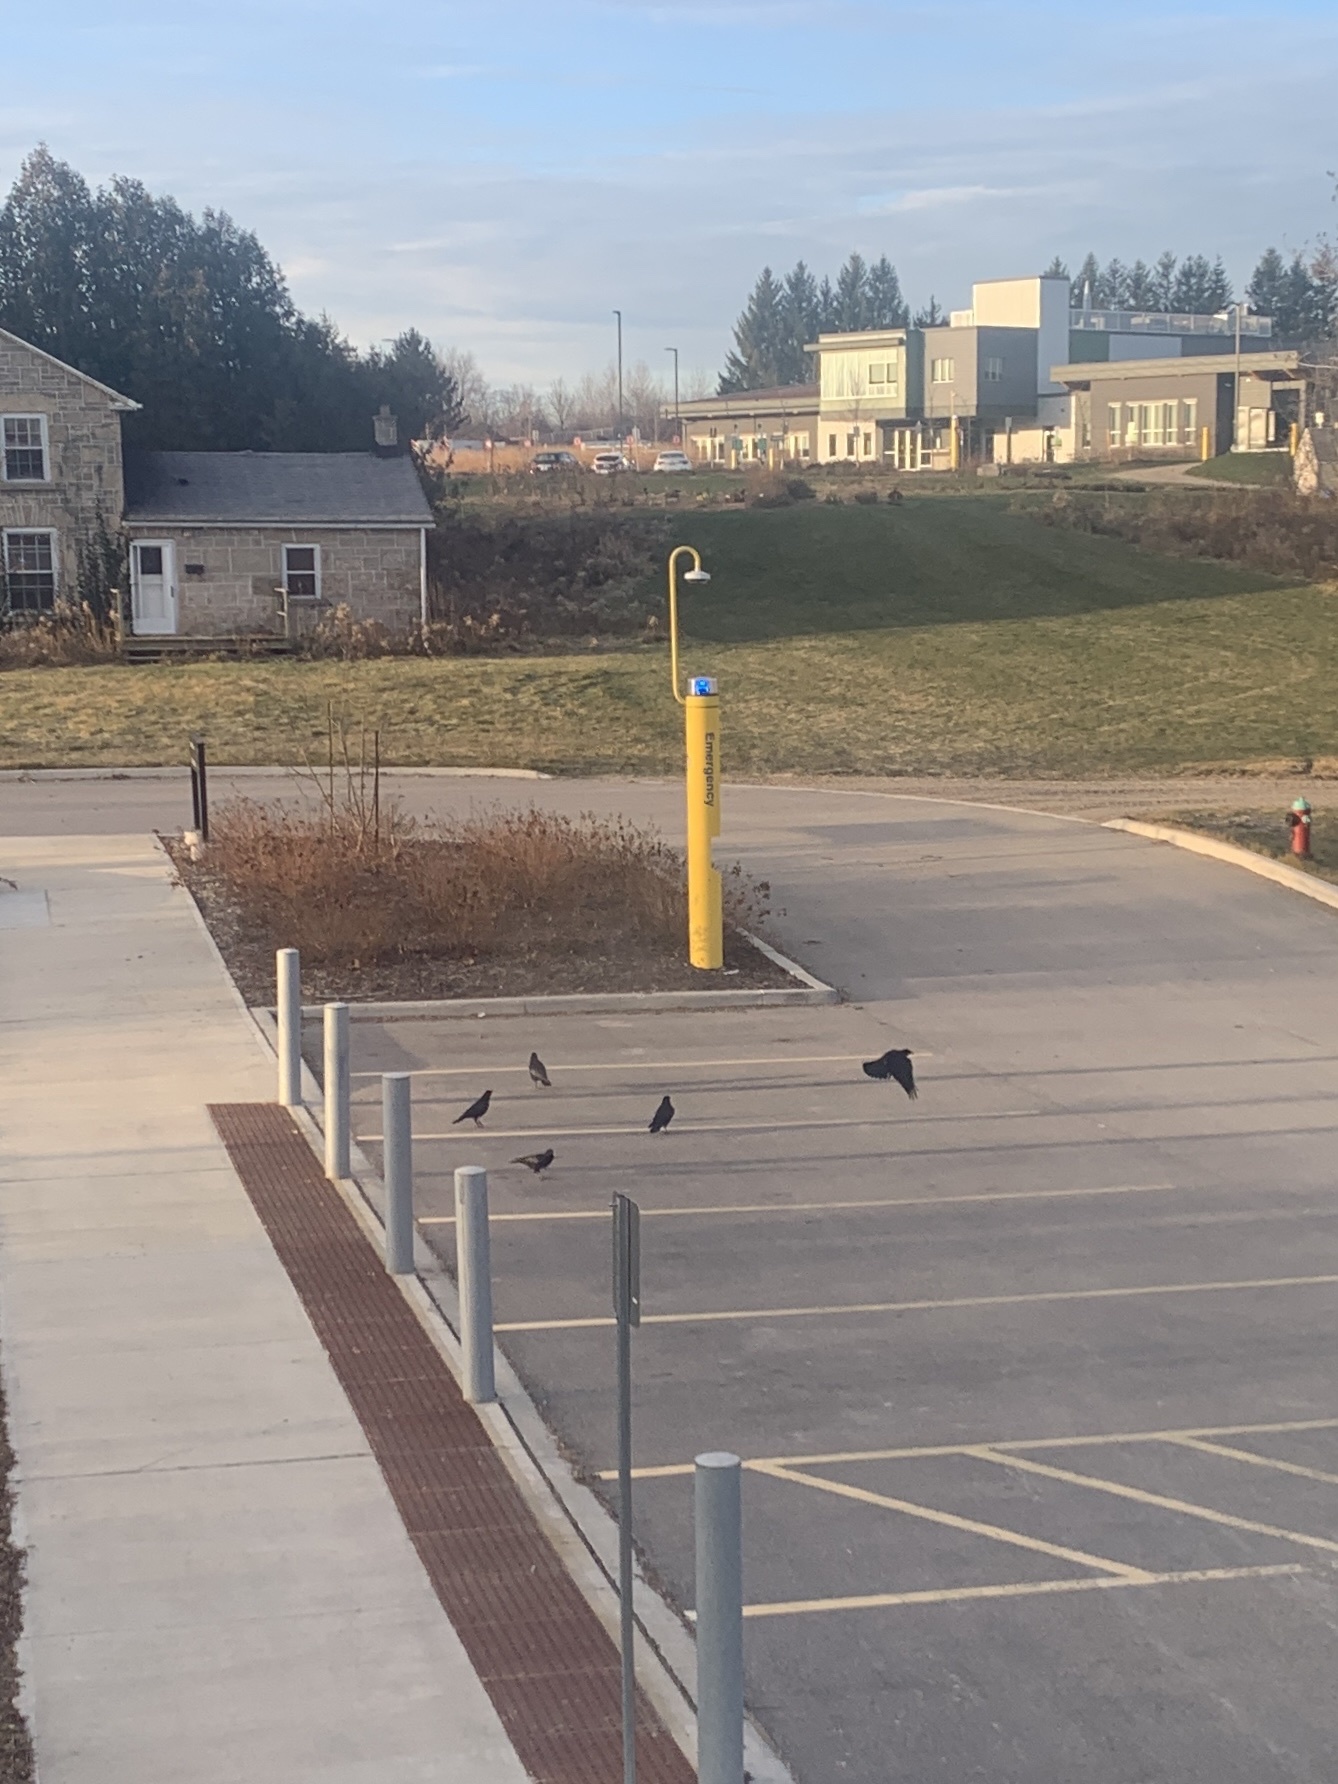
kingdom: Animalia
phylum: Chordata
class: Aves
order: Passeriformes
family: Corvidae
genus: Corvus
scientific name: Corvus brachyrhynchos
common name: American crow
